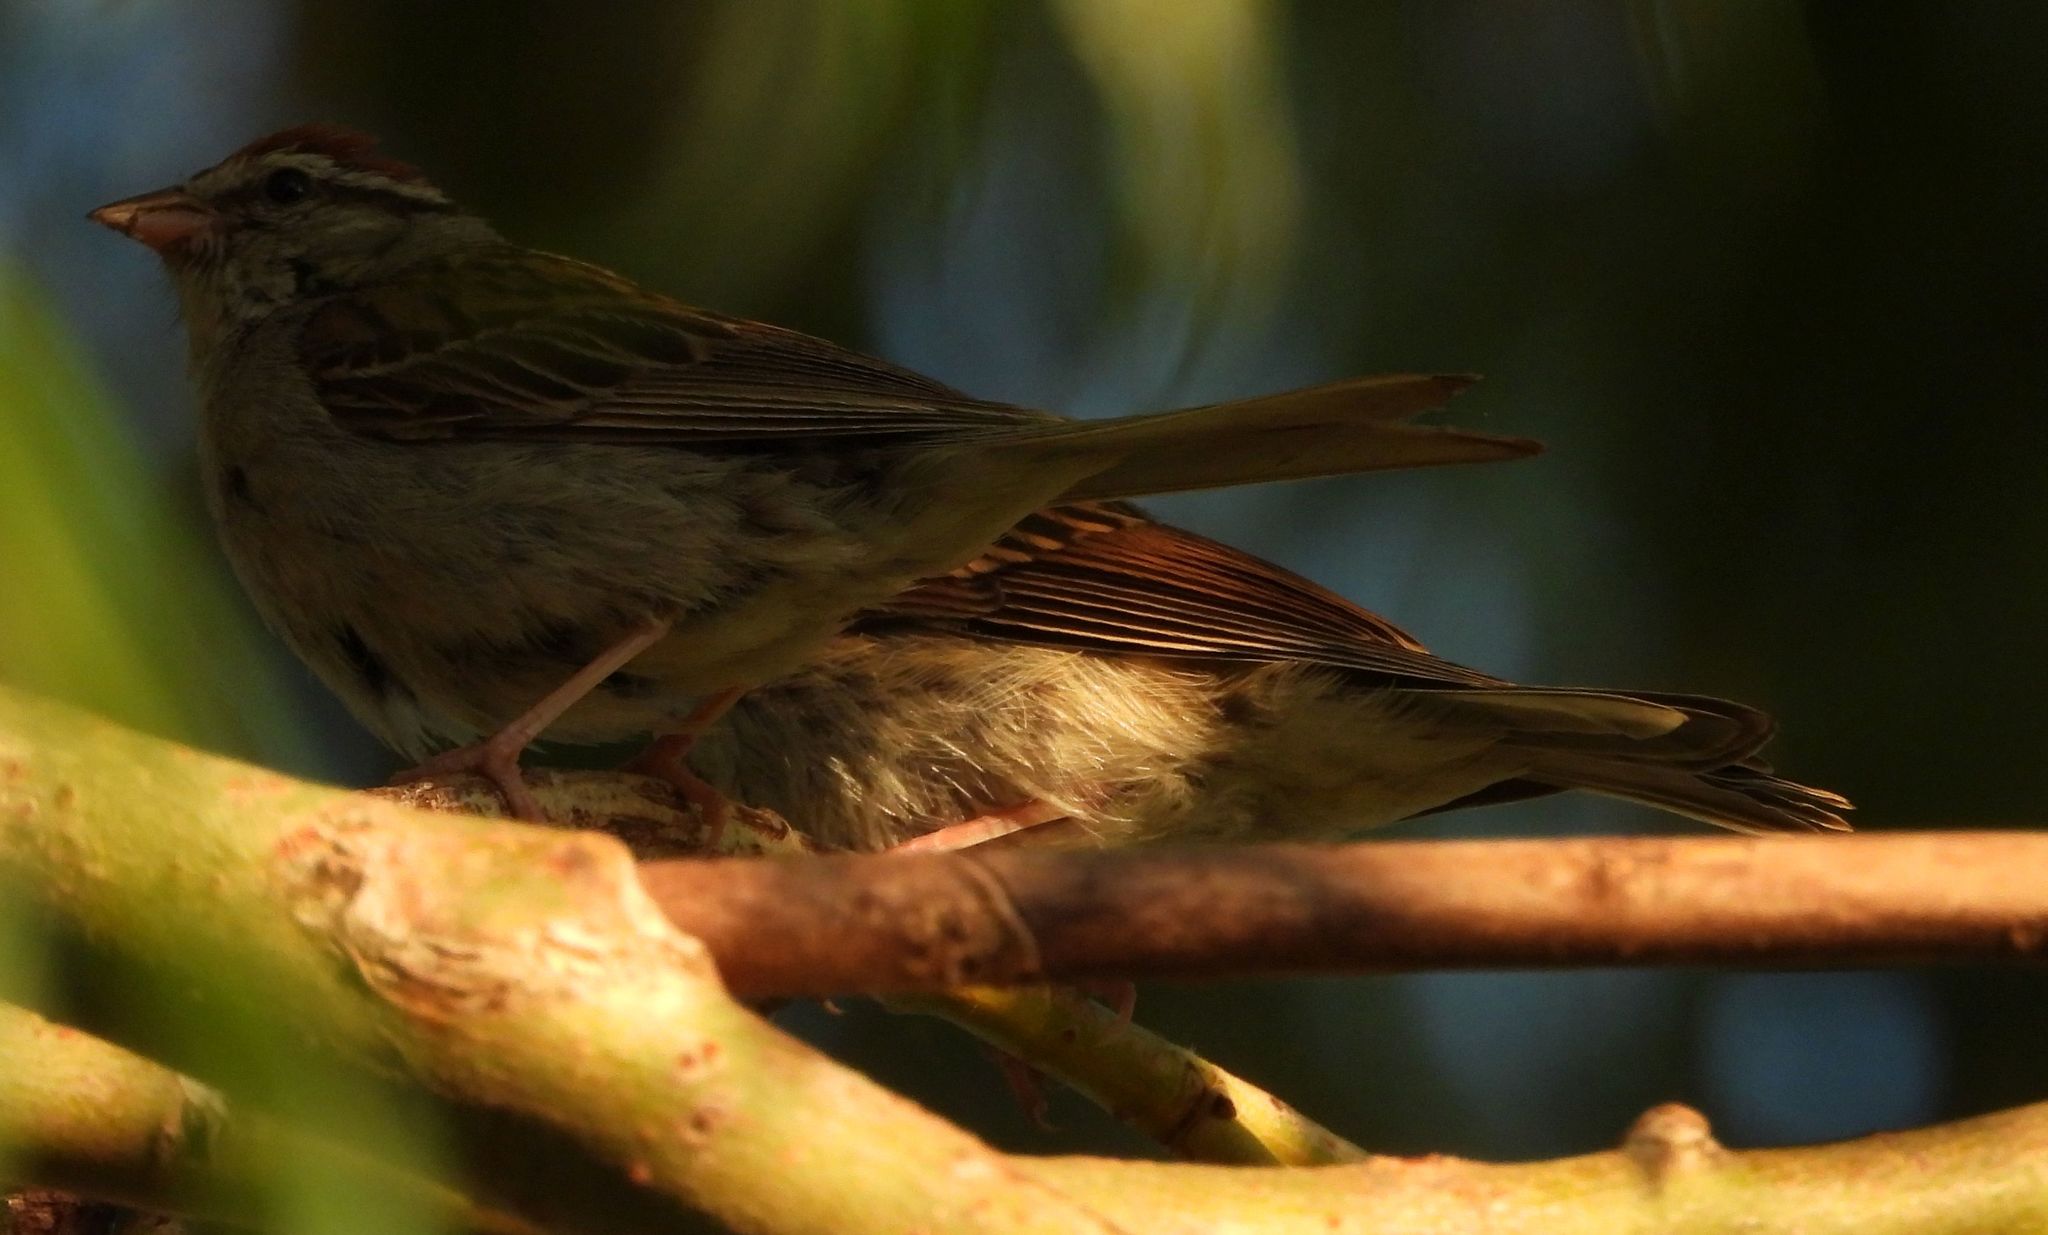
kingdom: Animalia
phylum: Chordata
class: Aves
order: Passeriformes
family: Passerellidae
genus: Spizella
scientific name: Spizella passerina
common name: Chipping sparrow
